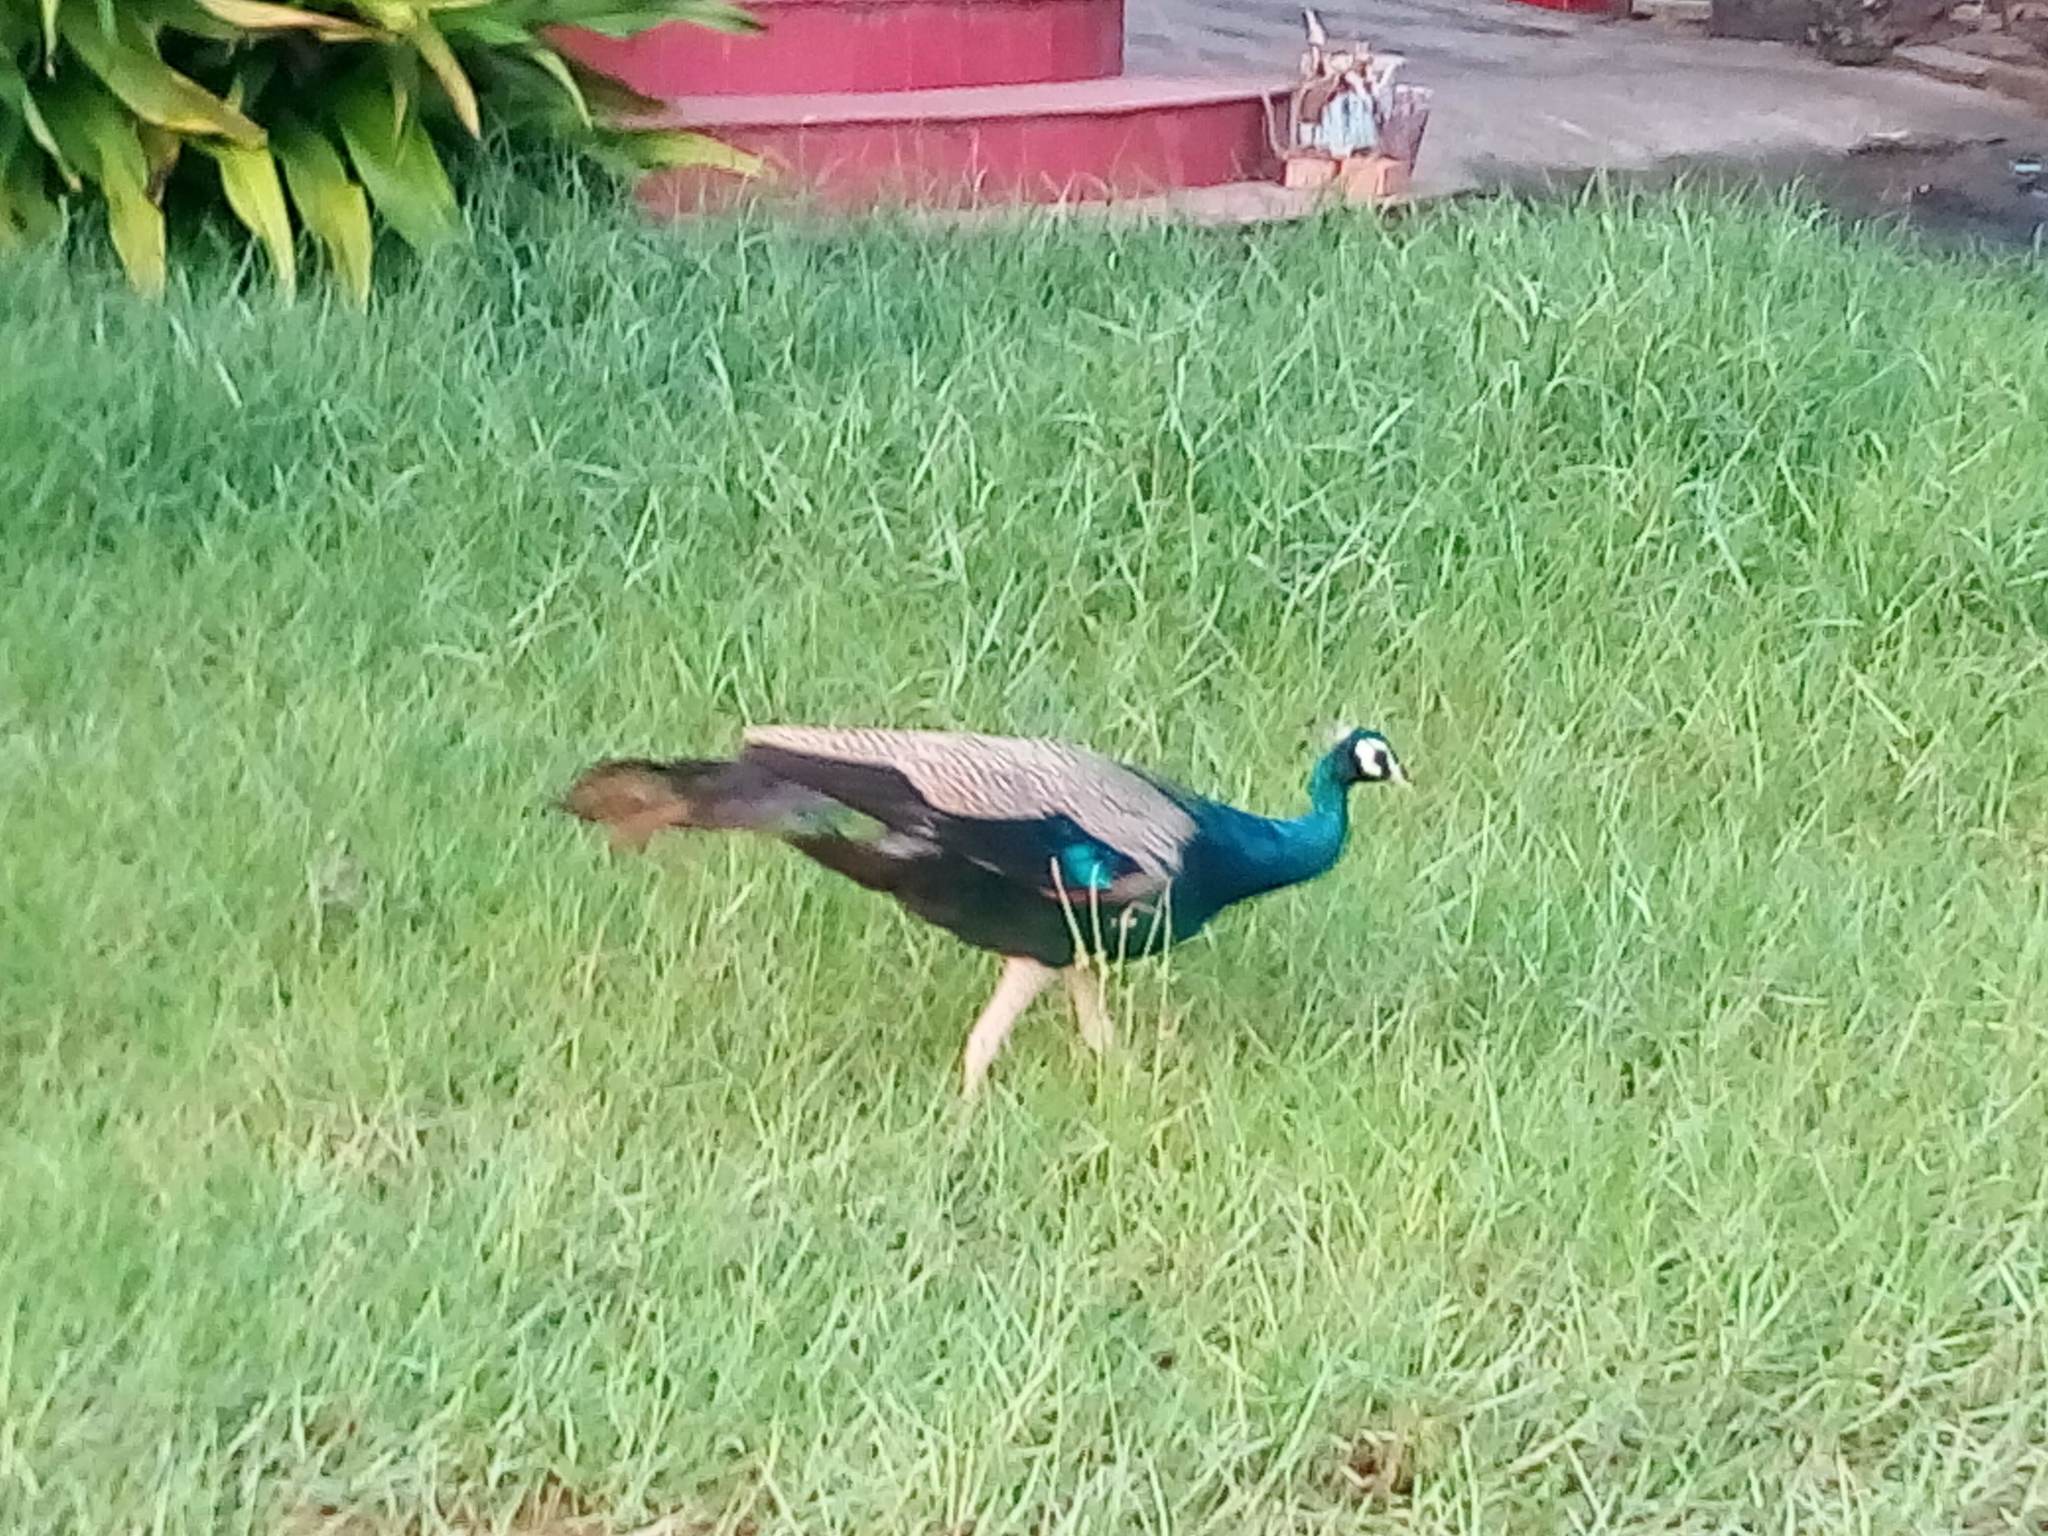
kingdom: Animalia
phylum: Chordata
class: Aves
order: Galliformes
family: Phasianidae
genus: Pavo
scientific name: Pavo cristatus
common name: Indian peafowl
